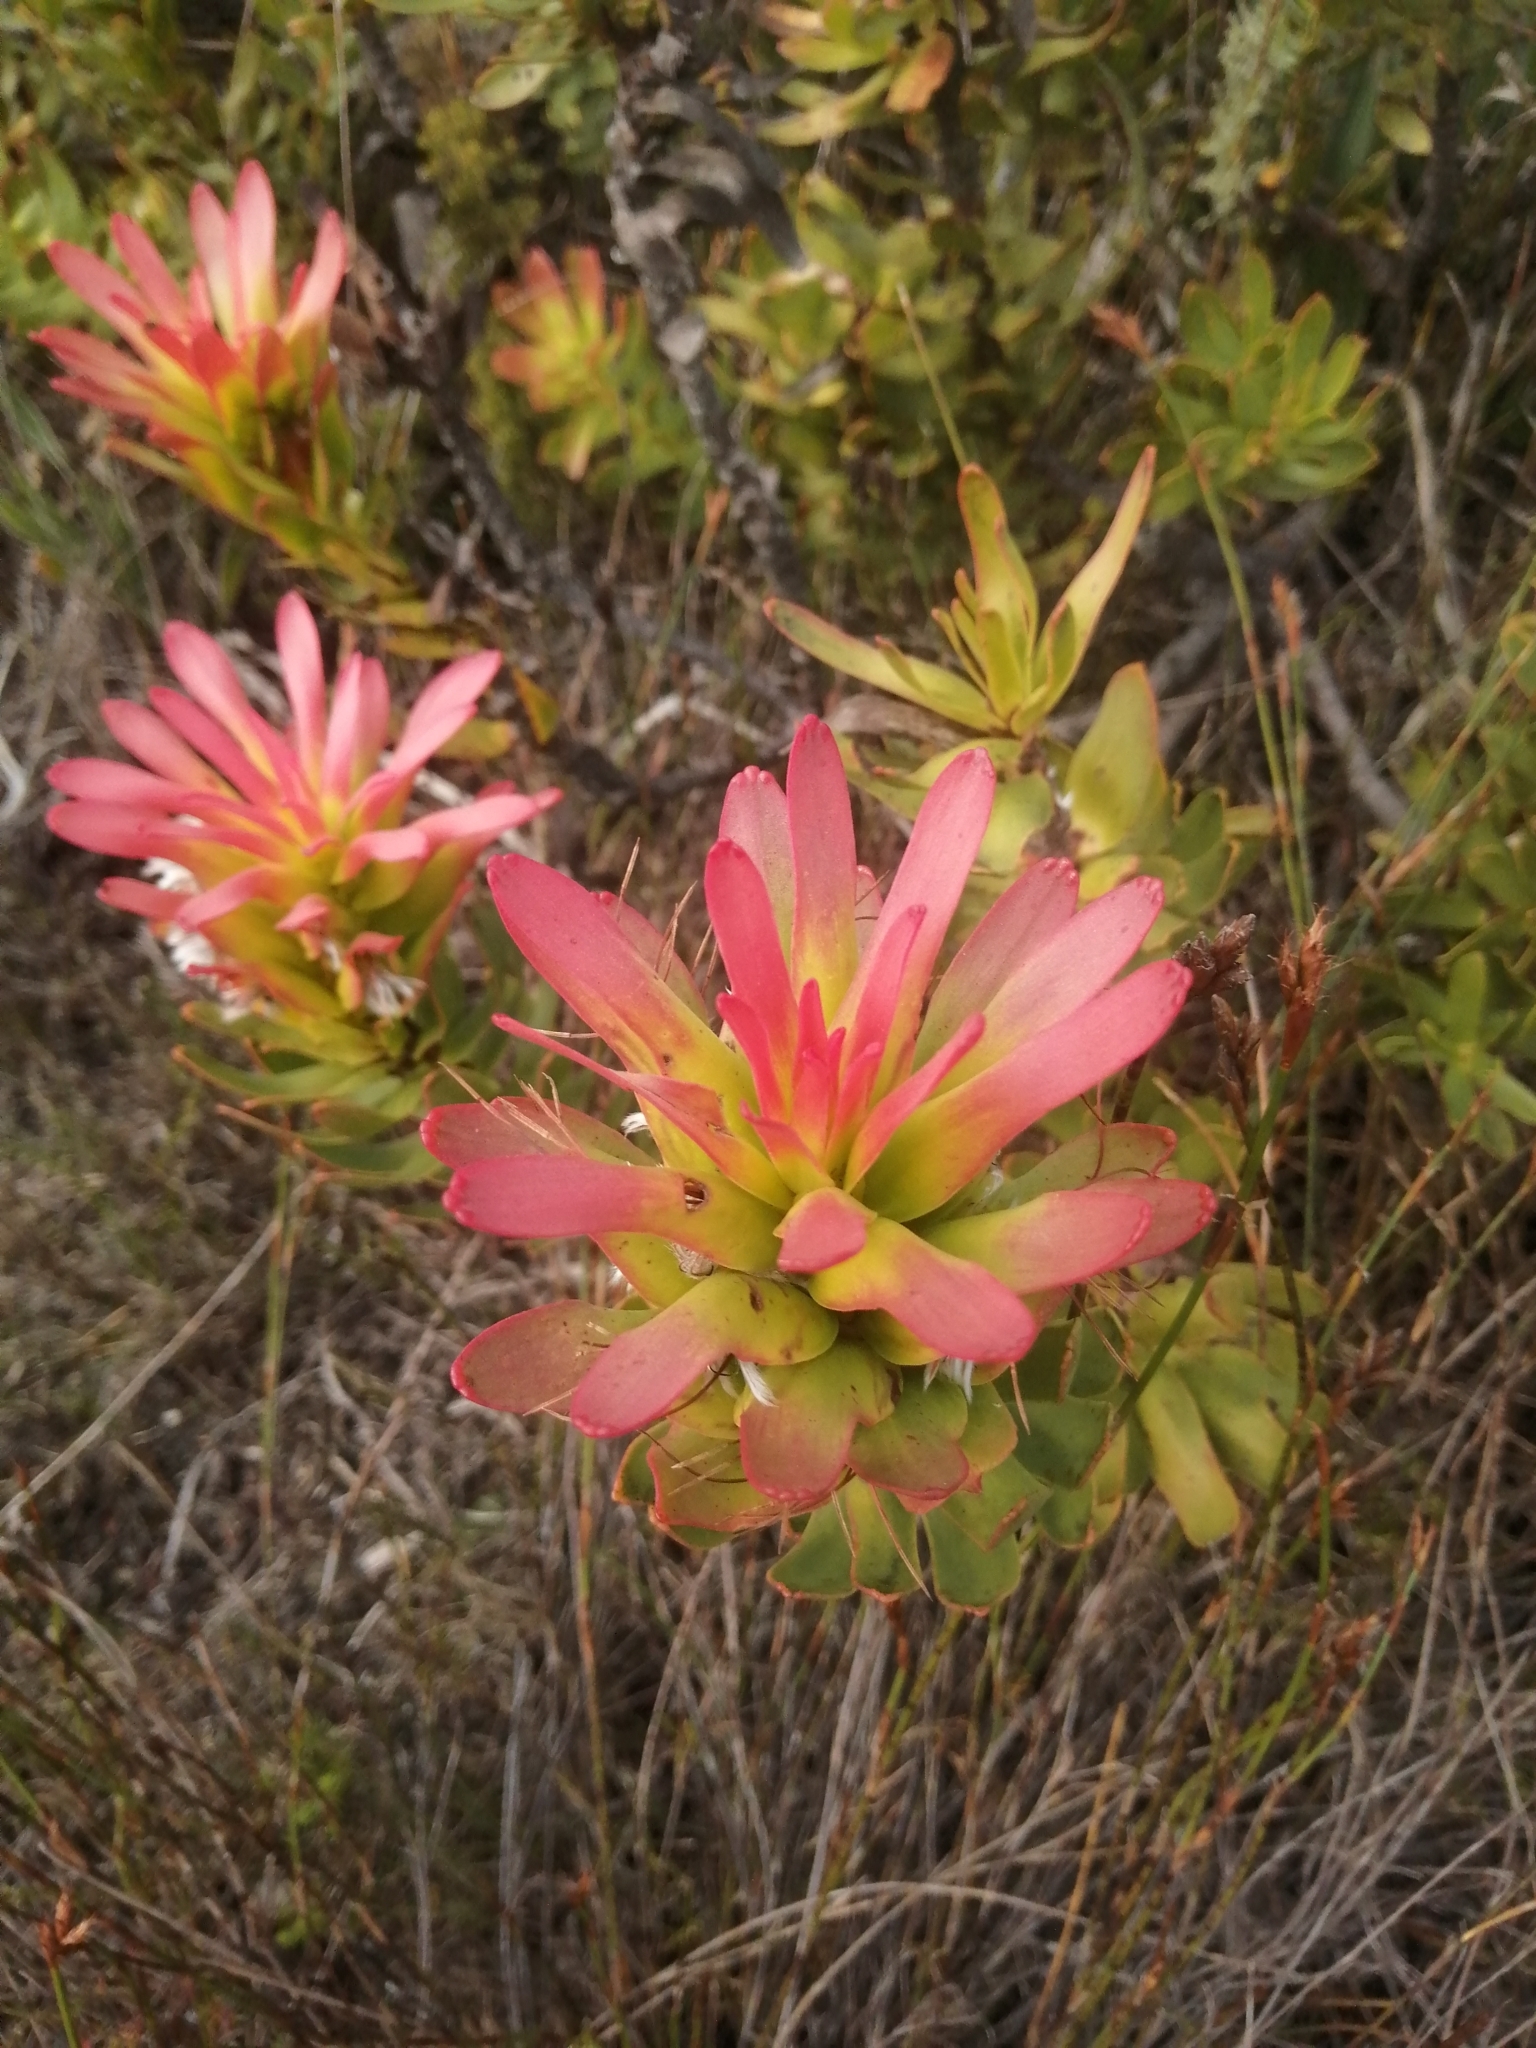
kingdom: Plantae
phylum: Tracheophyta
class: Magnoliopsida
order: Proteales
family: Proteaceae
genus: Mimetes
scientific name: Mimetes cucullatus
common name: Common pagoda
